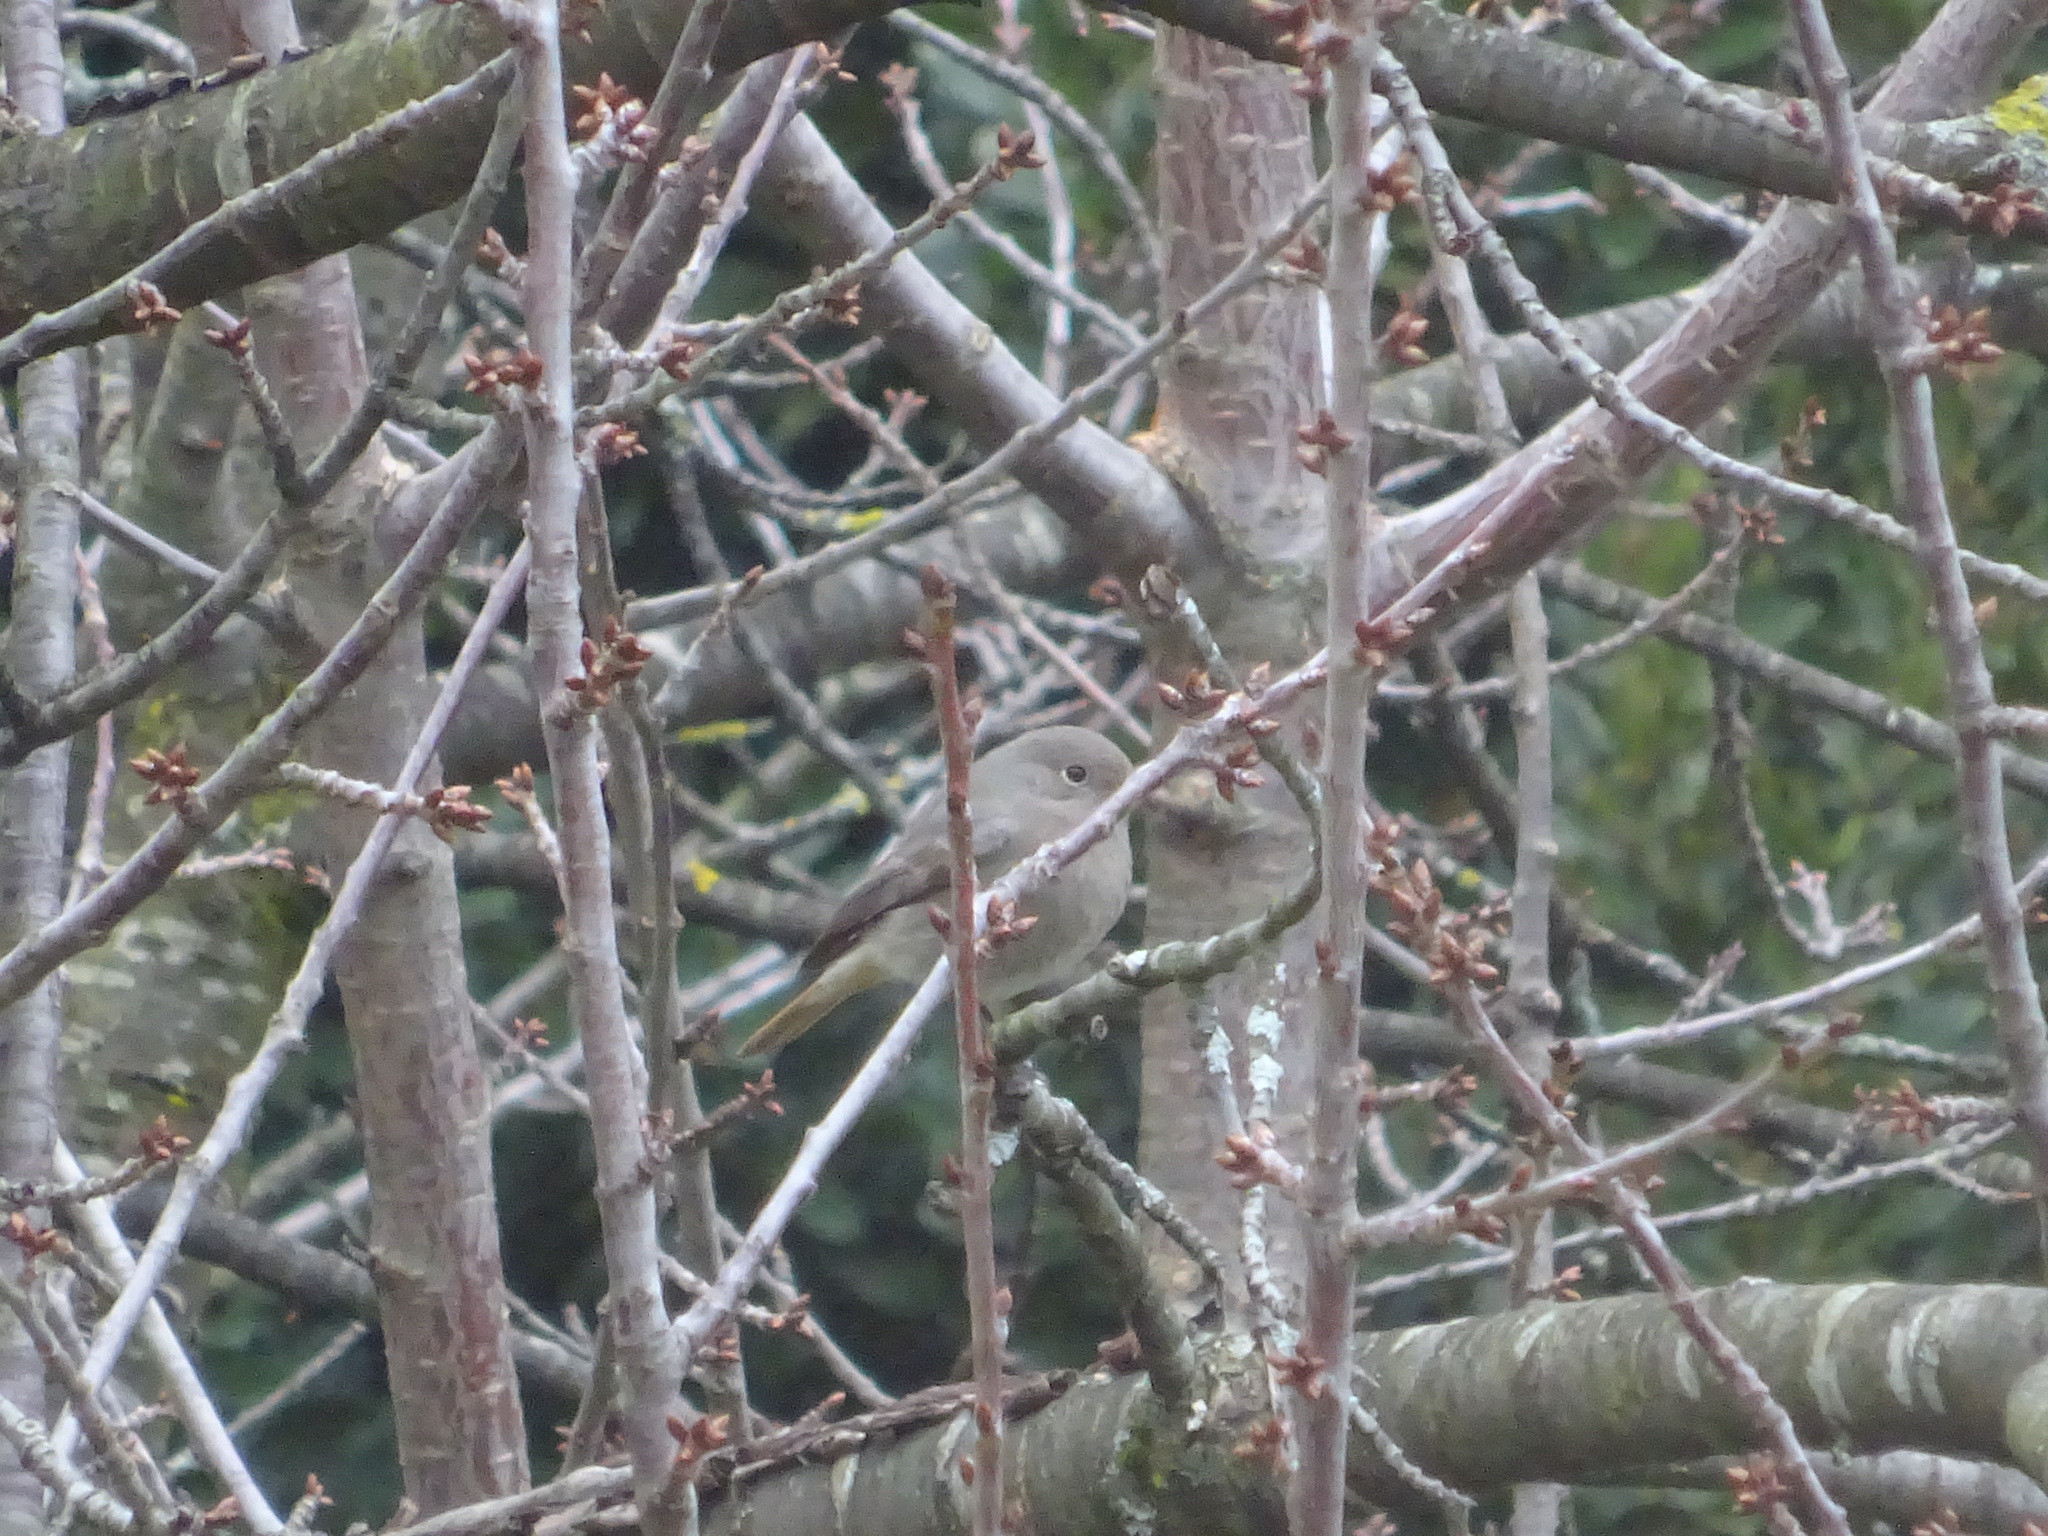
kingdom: Animalia
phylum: Chordata
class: Aves
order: Passeriformes
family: Muscicapidae
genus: Phoenicurus
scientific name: Phoenicurus ochruros
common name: Black redstart
